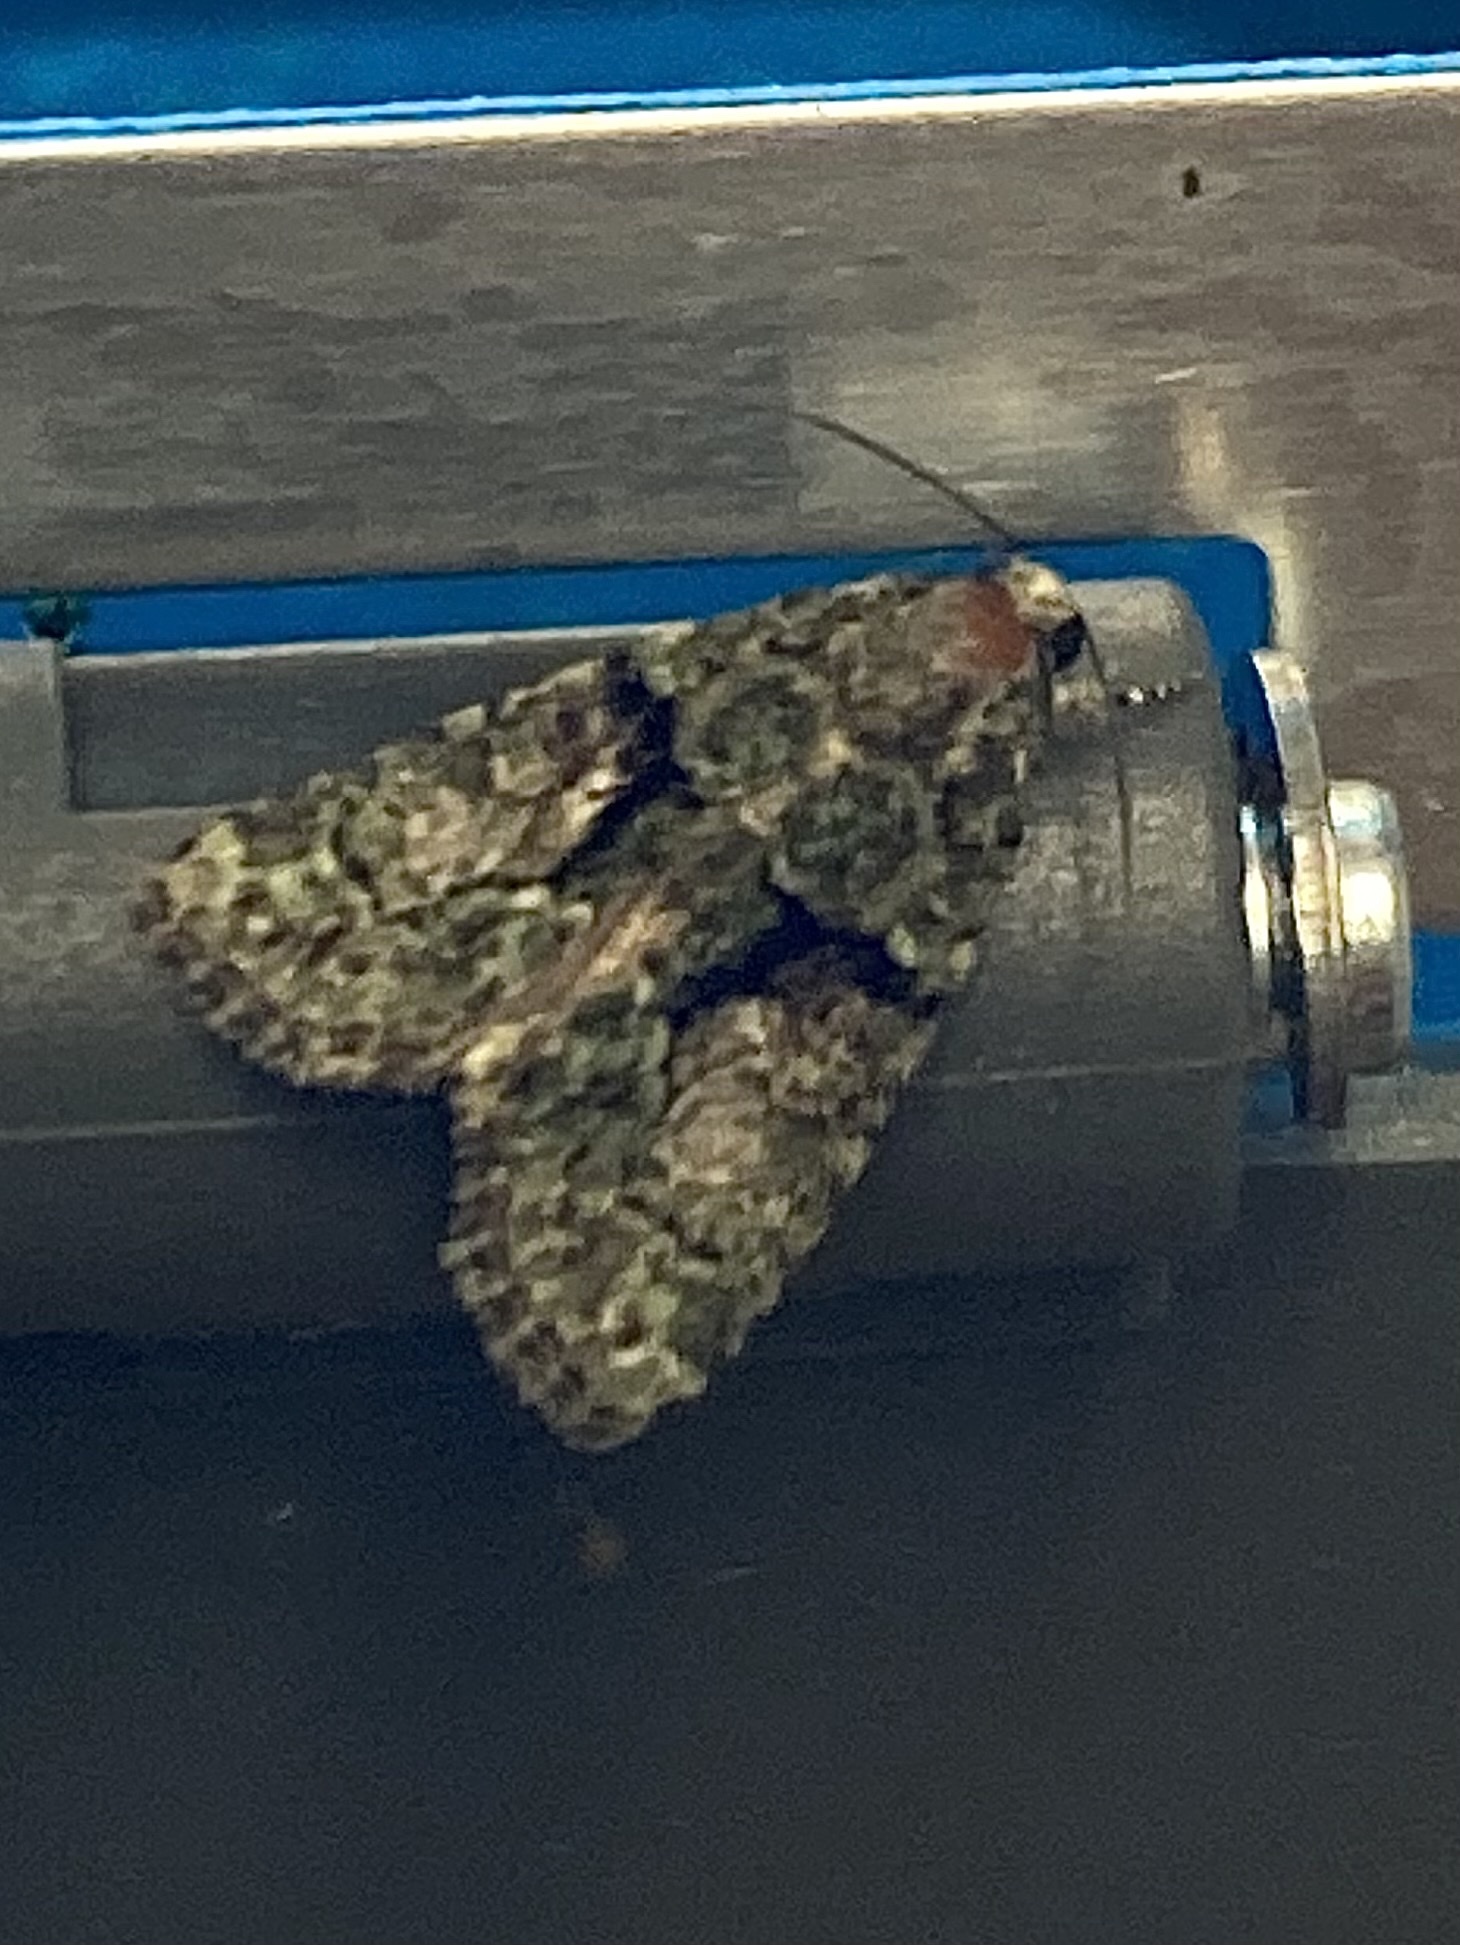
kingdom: Animalia
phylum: Arthropoda
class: Insecta
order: Lepidoptera
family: Noctuidae
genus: Cryphia
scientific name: Cryphia
